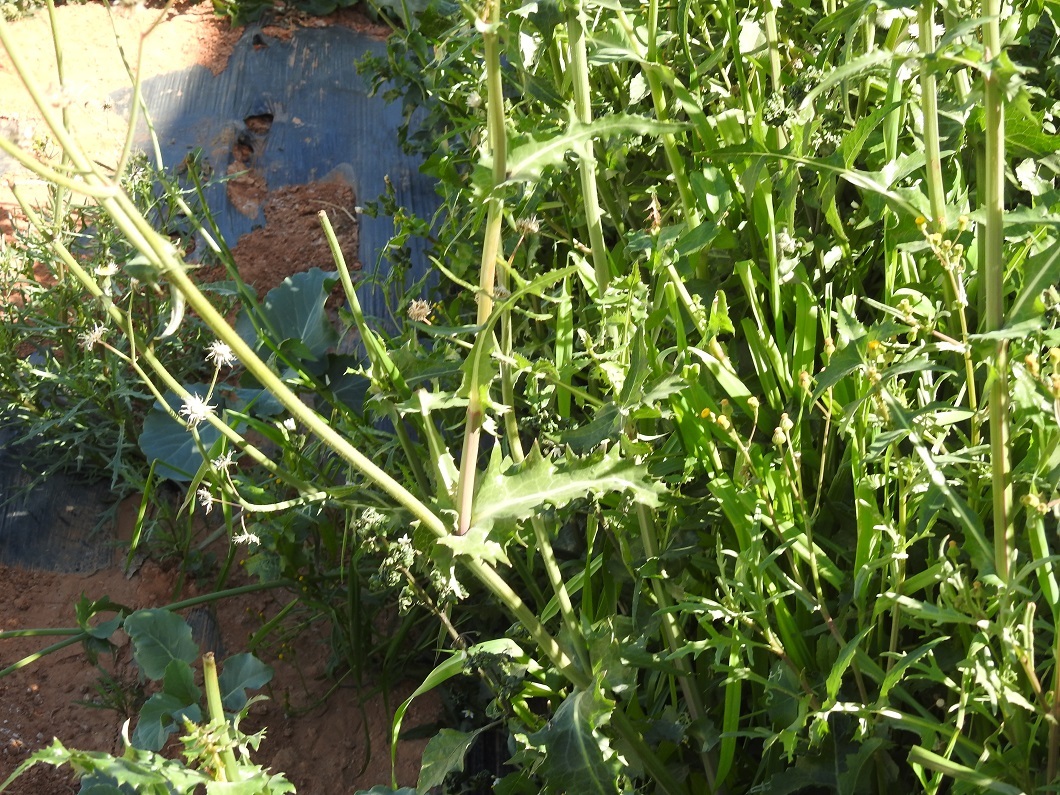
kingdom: Plantae
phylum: Tracheophyta
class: Magnoliopsida
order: Asterales
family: Asteraceae
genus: Sonchus
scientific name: Sonchus oleraceus
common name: Common sowthistle
